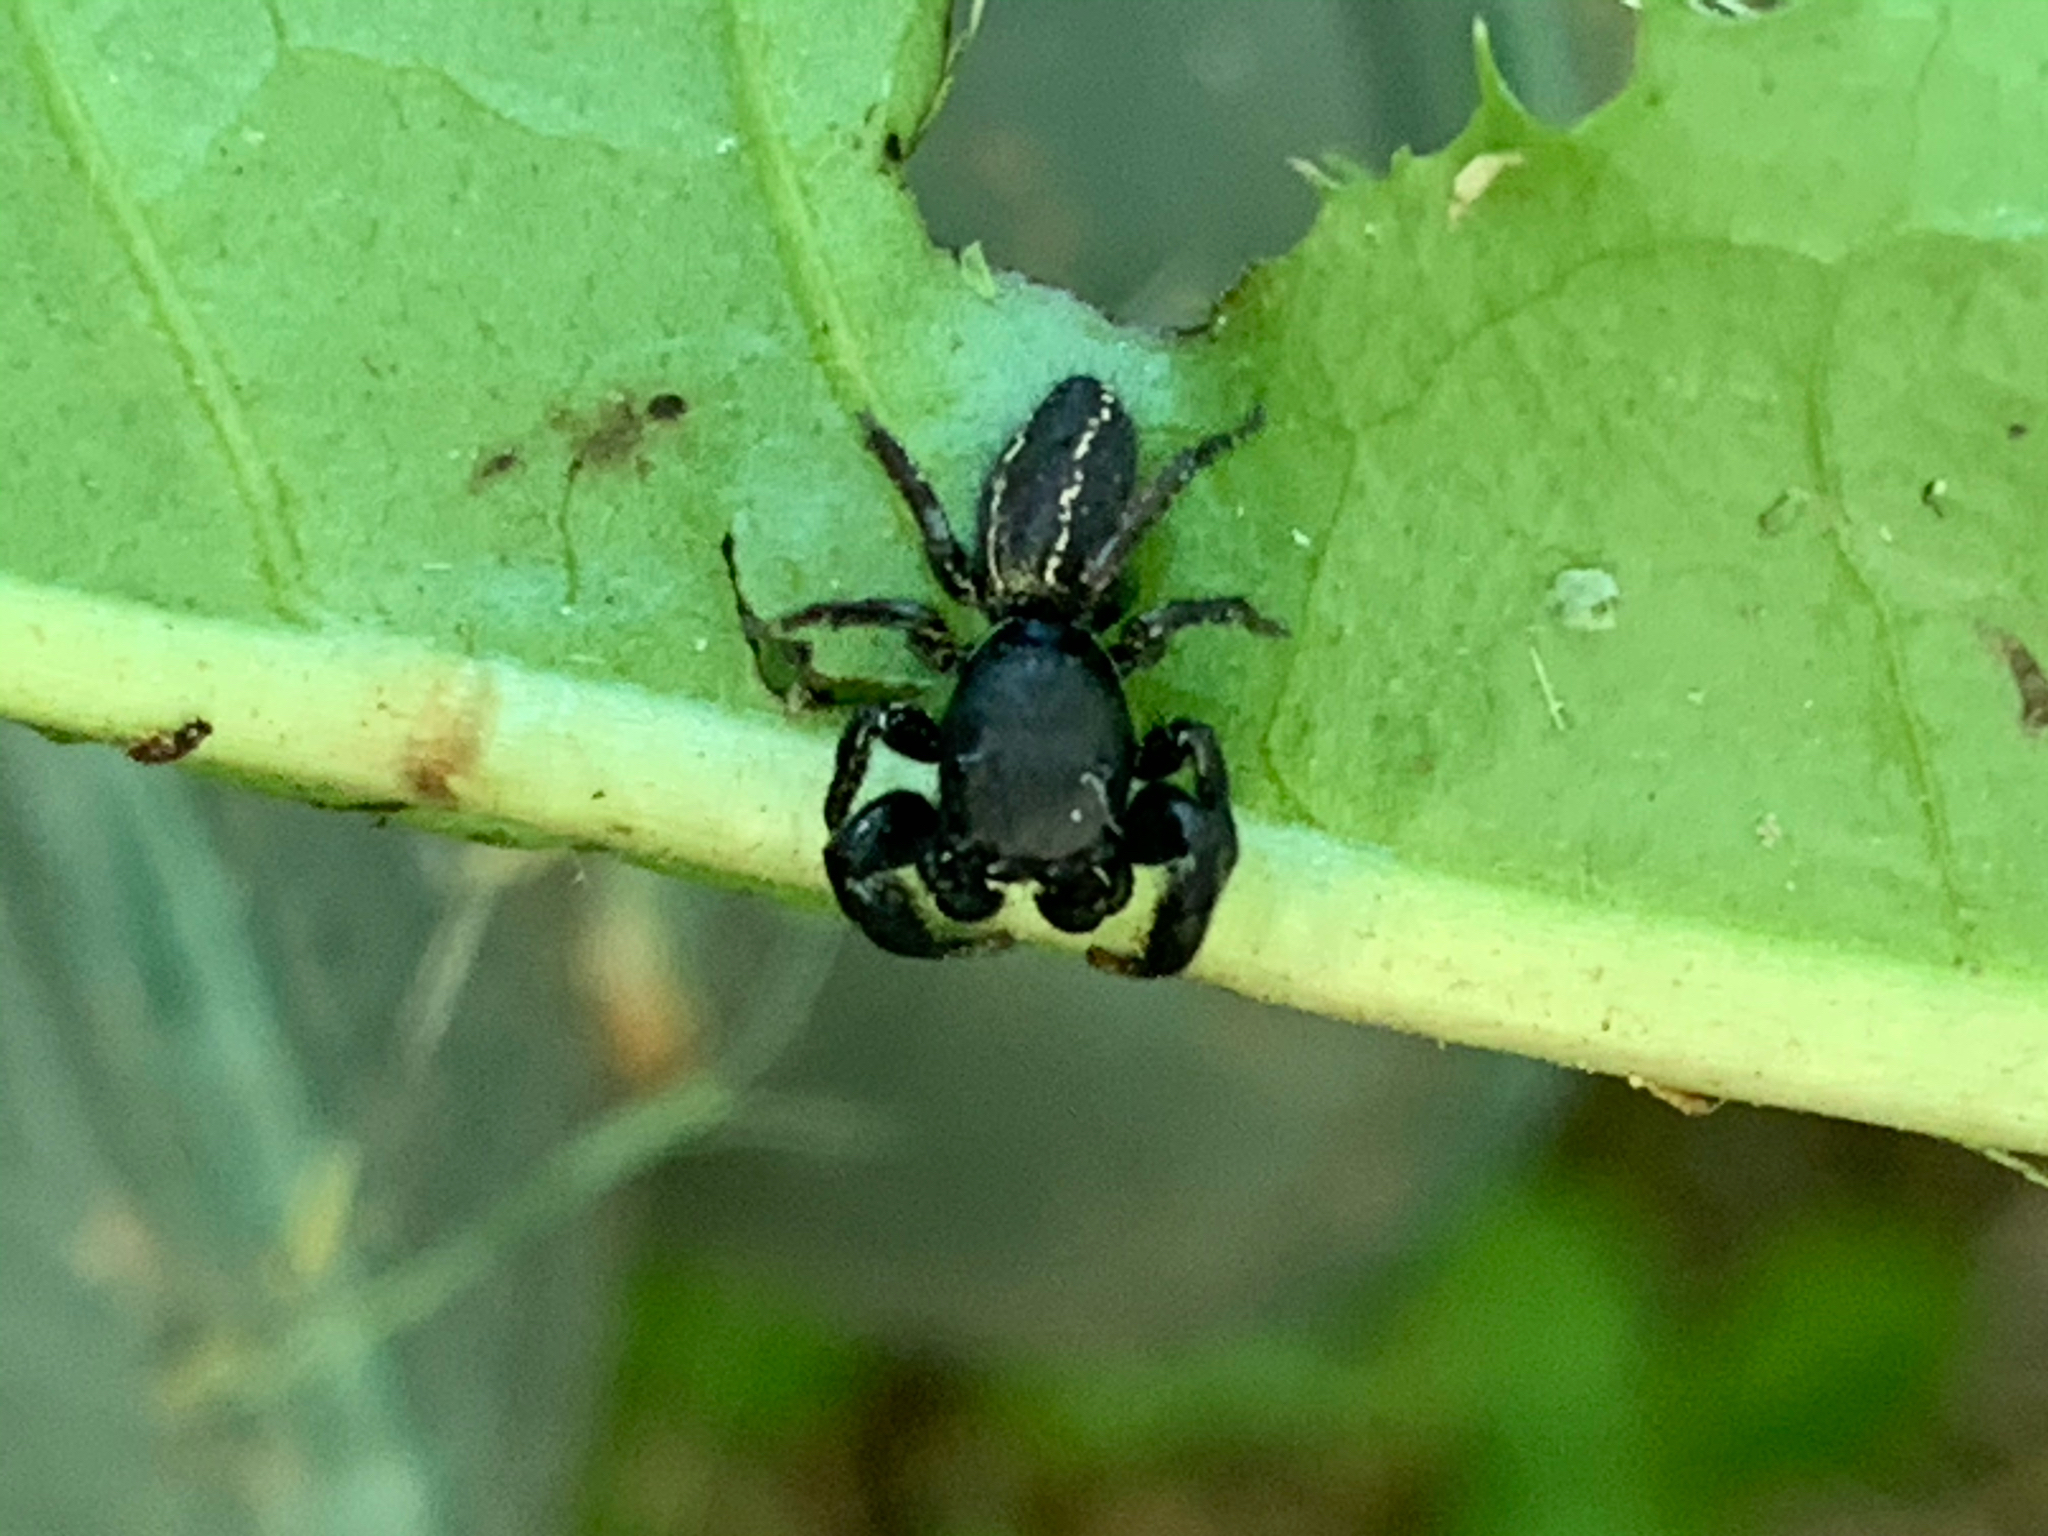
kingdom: Animalia
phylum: Arthropoda
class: Arachnida
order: Araneae
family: Salticidae
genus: Metacyrba
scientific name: Metacyrba taeniola
